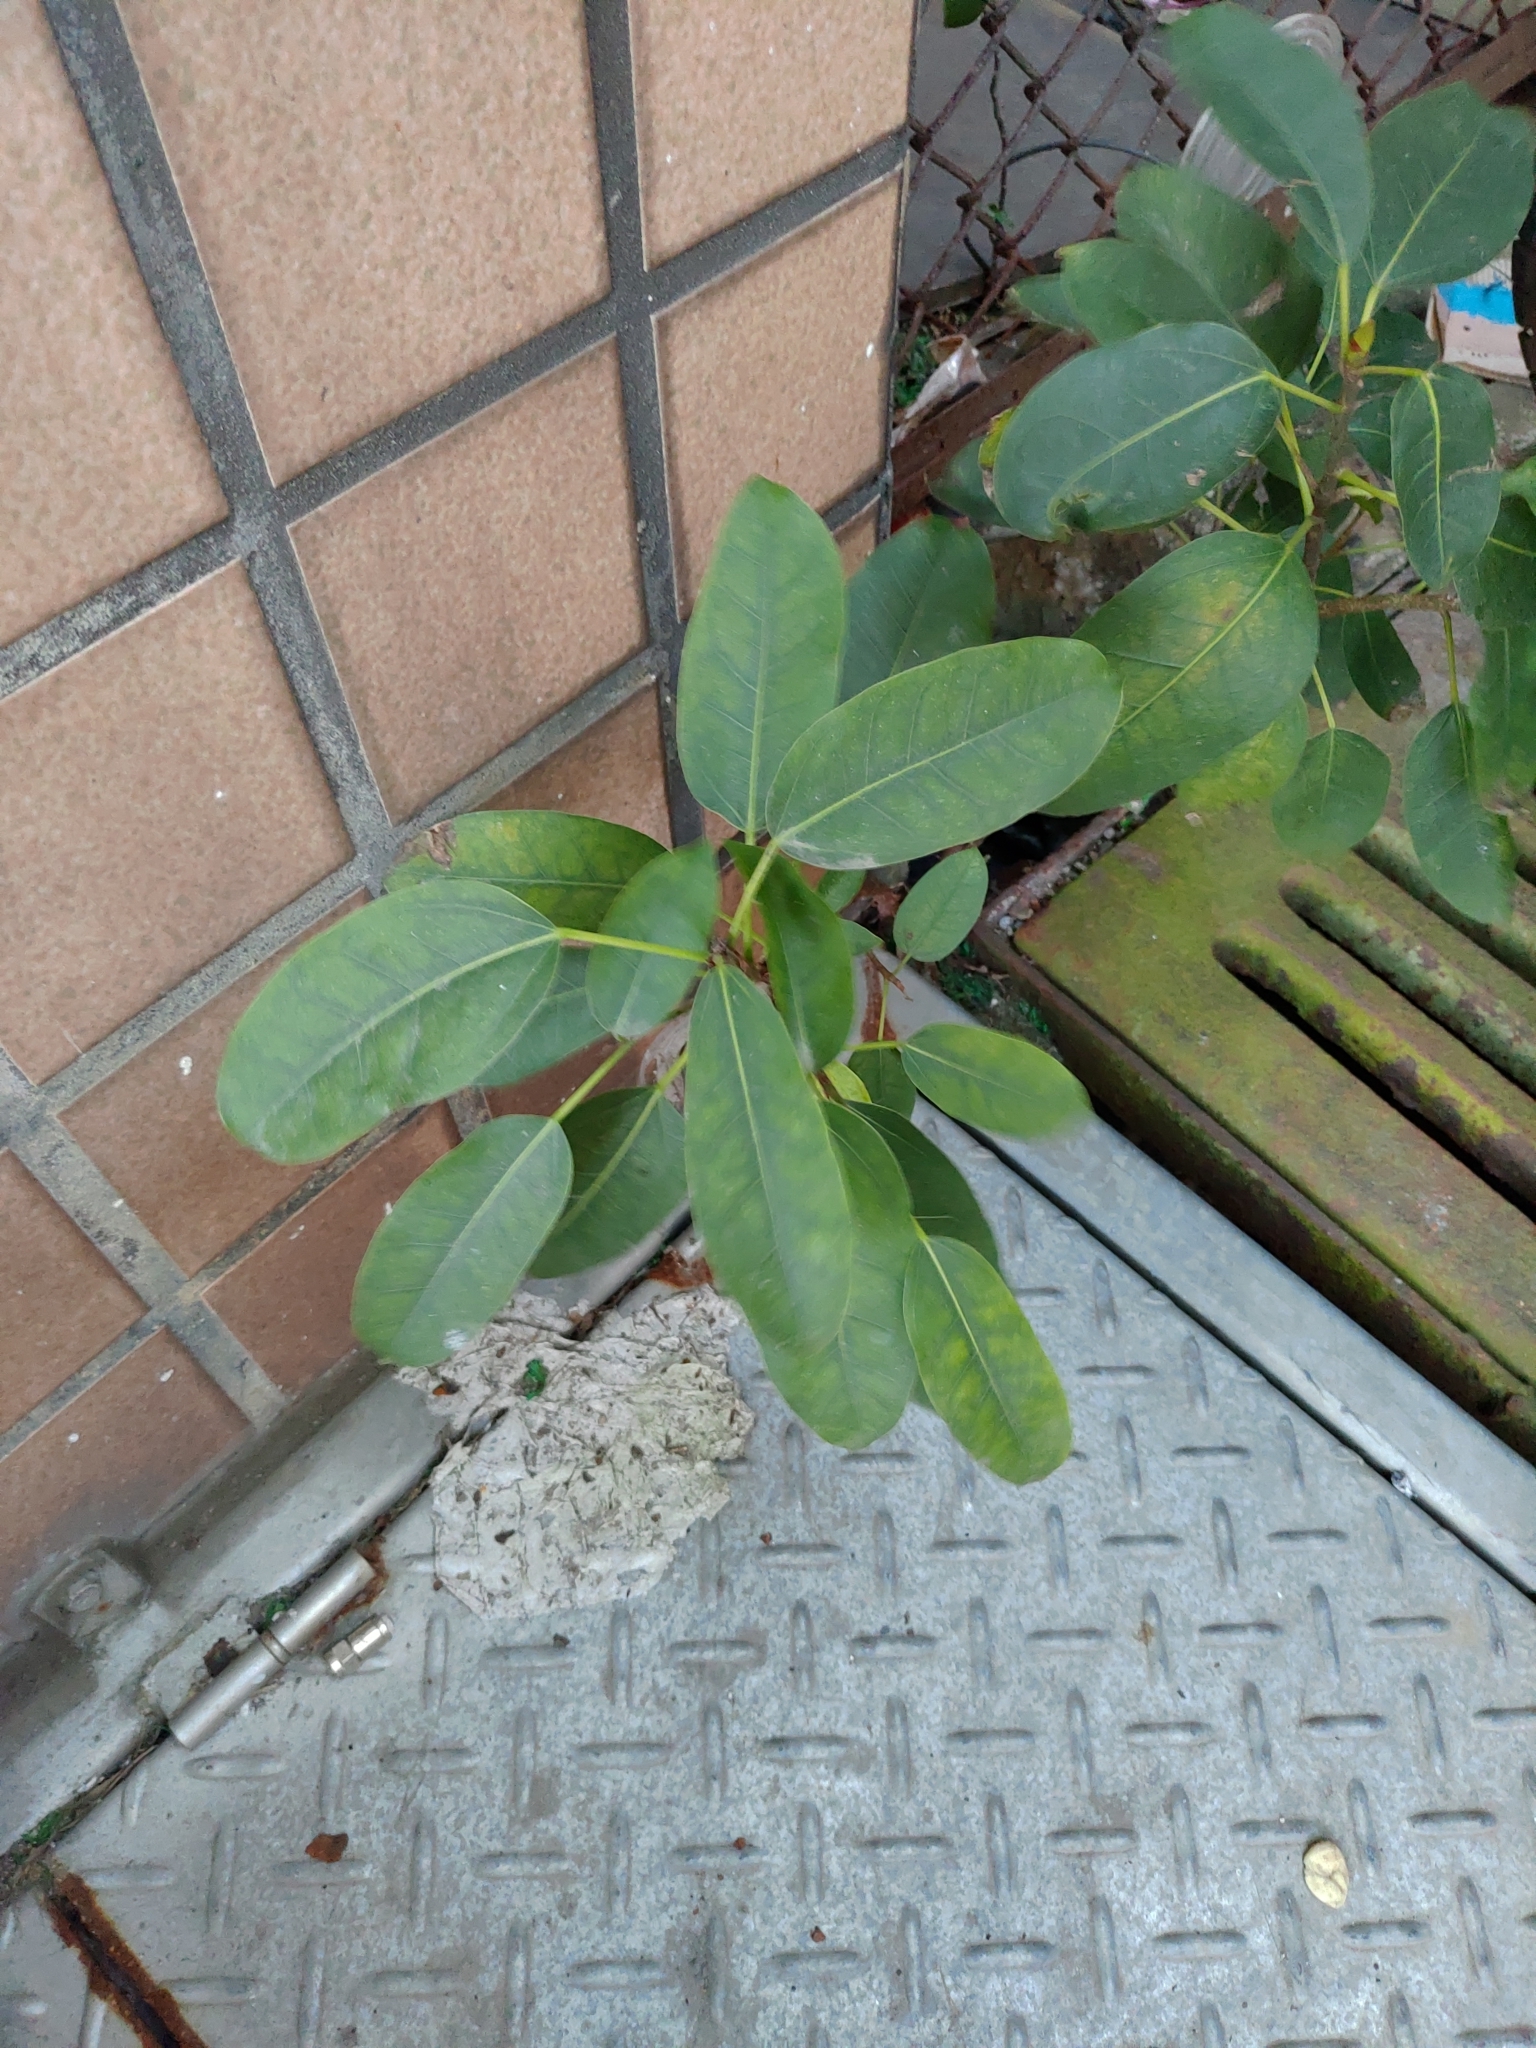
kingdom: Plantae
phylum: Tracheophyta
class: Magnoliopsida
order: Rosales
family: Moraceae
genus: Ficus
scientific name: Ficus subpisocarpa
